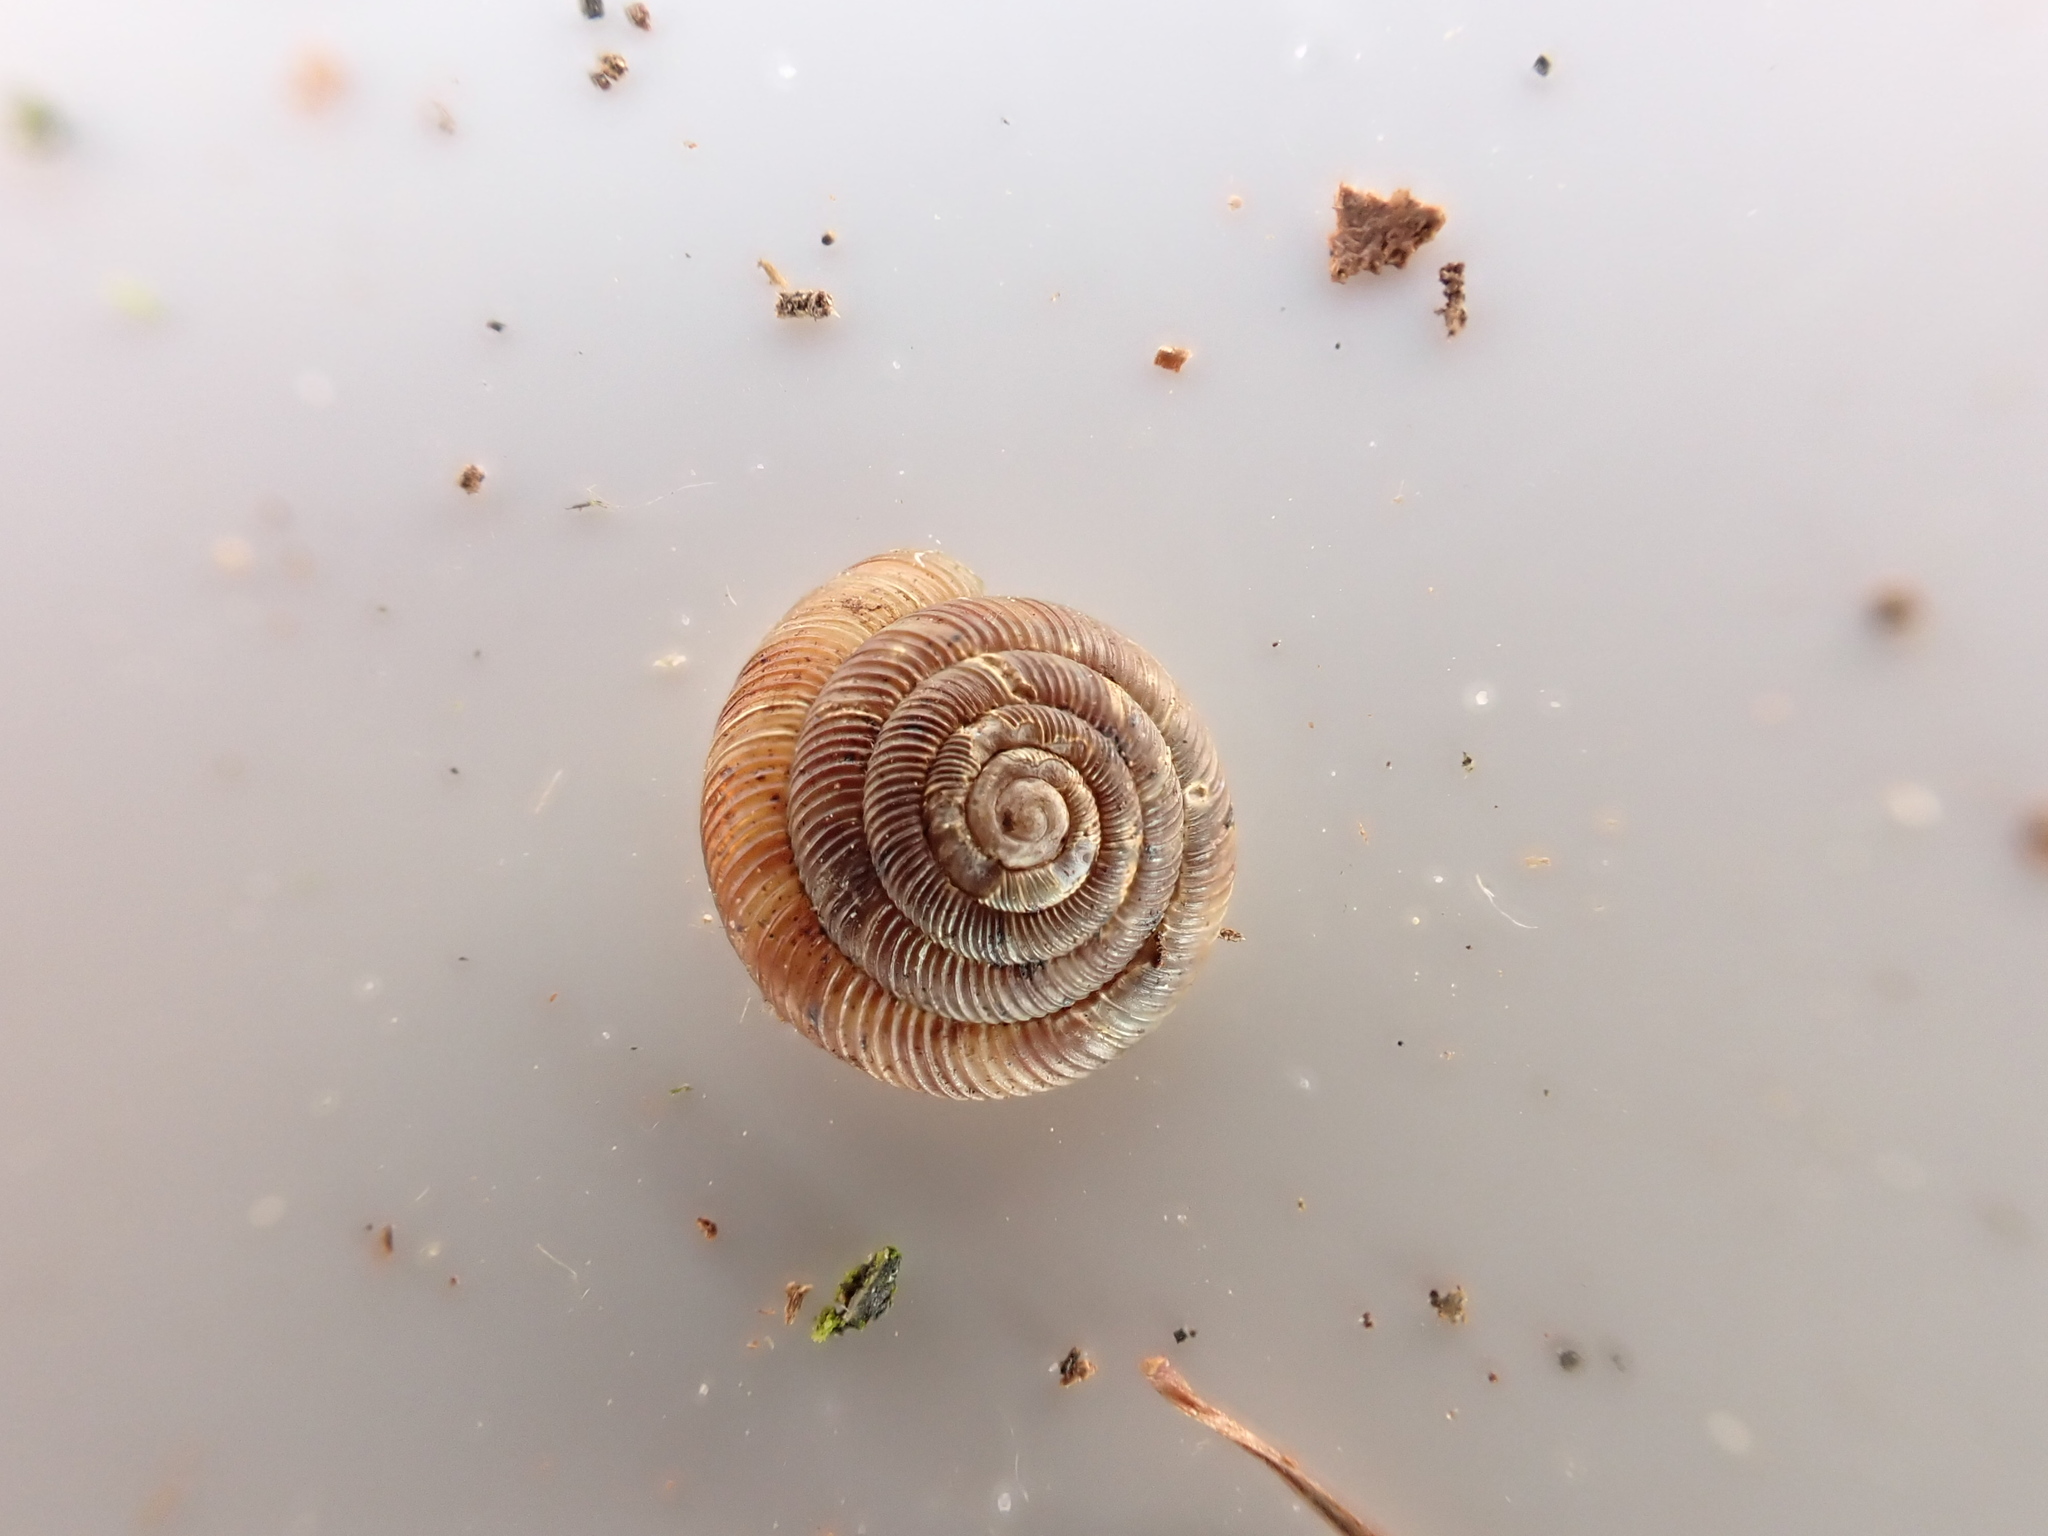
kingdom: Animalia
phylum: Mollusca
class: Gastropoda
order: Stylommatophora
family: Discidae
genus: Discus
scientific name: Discus rotundatus
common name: Rounded snail
